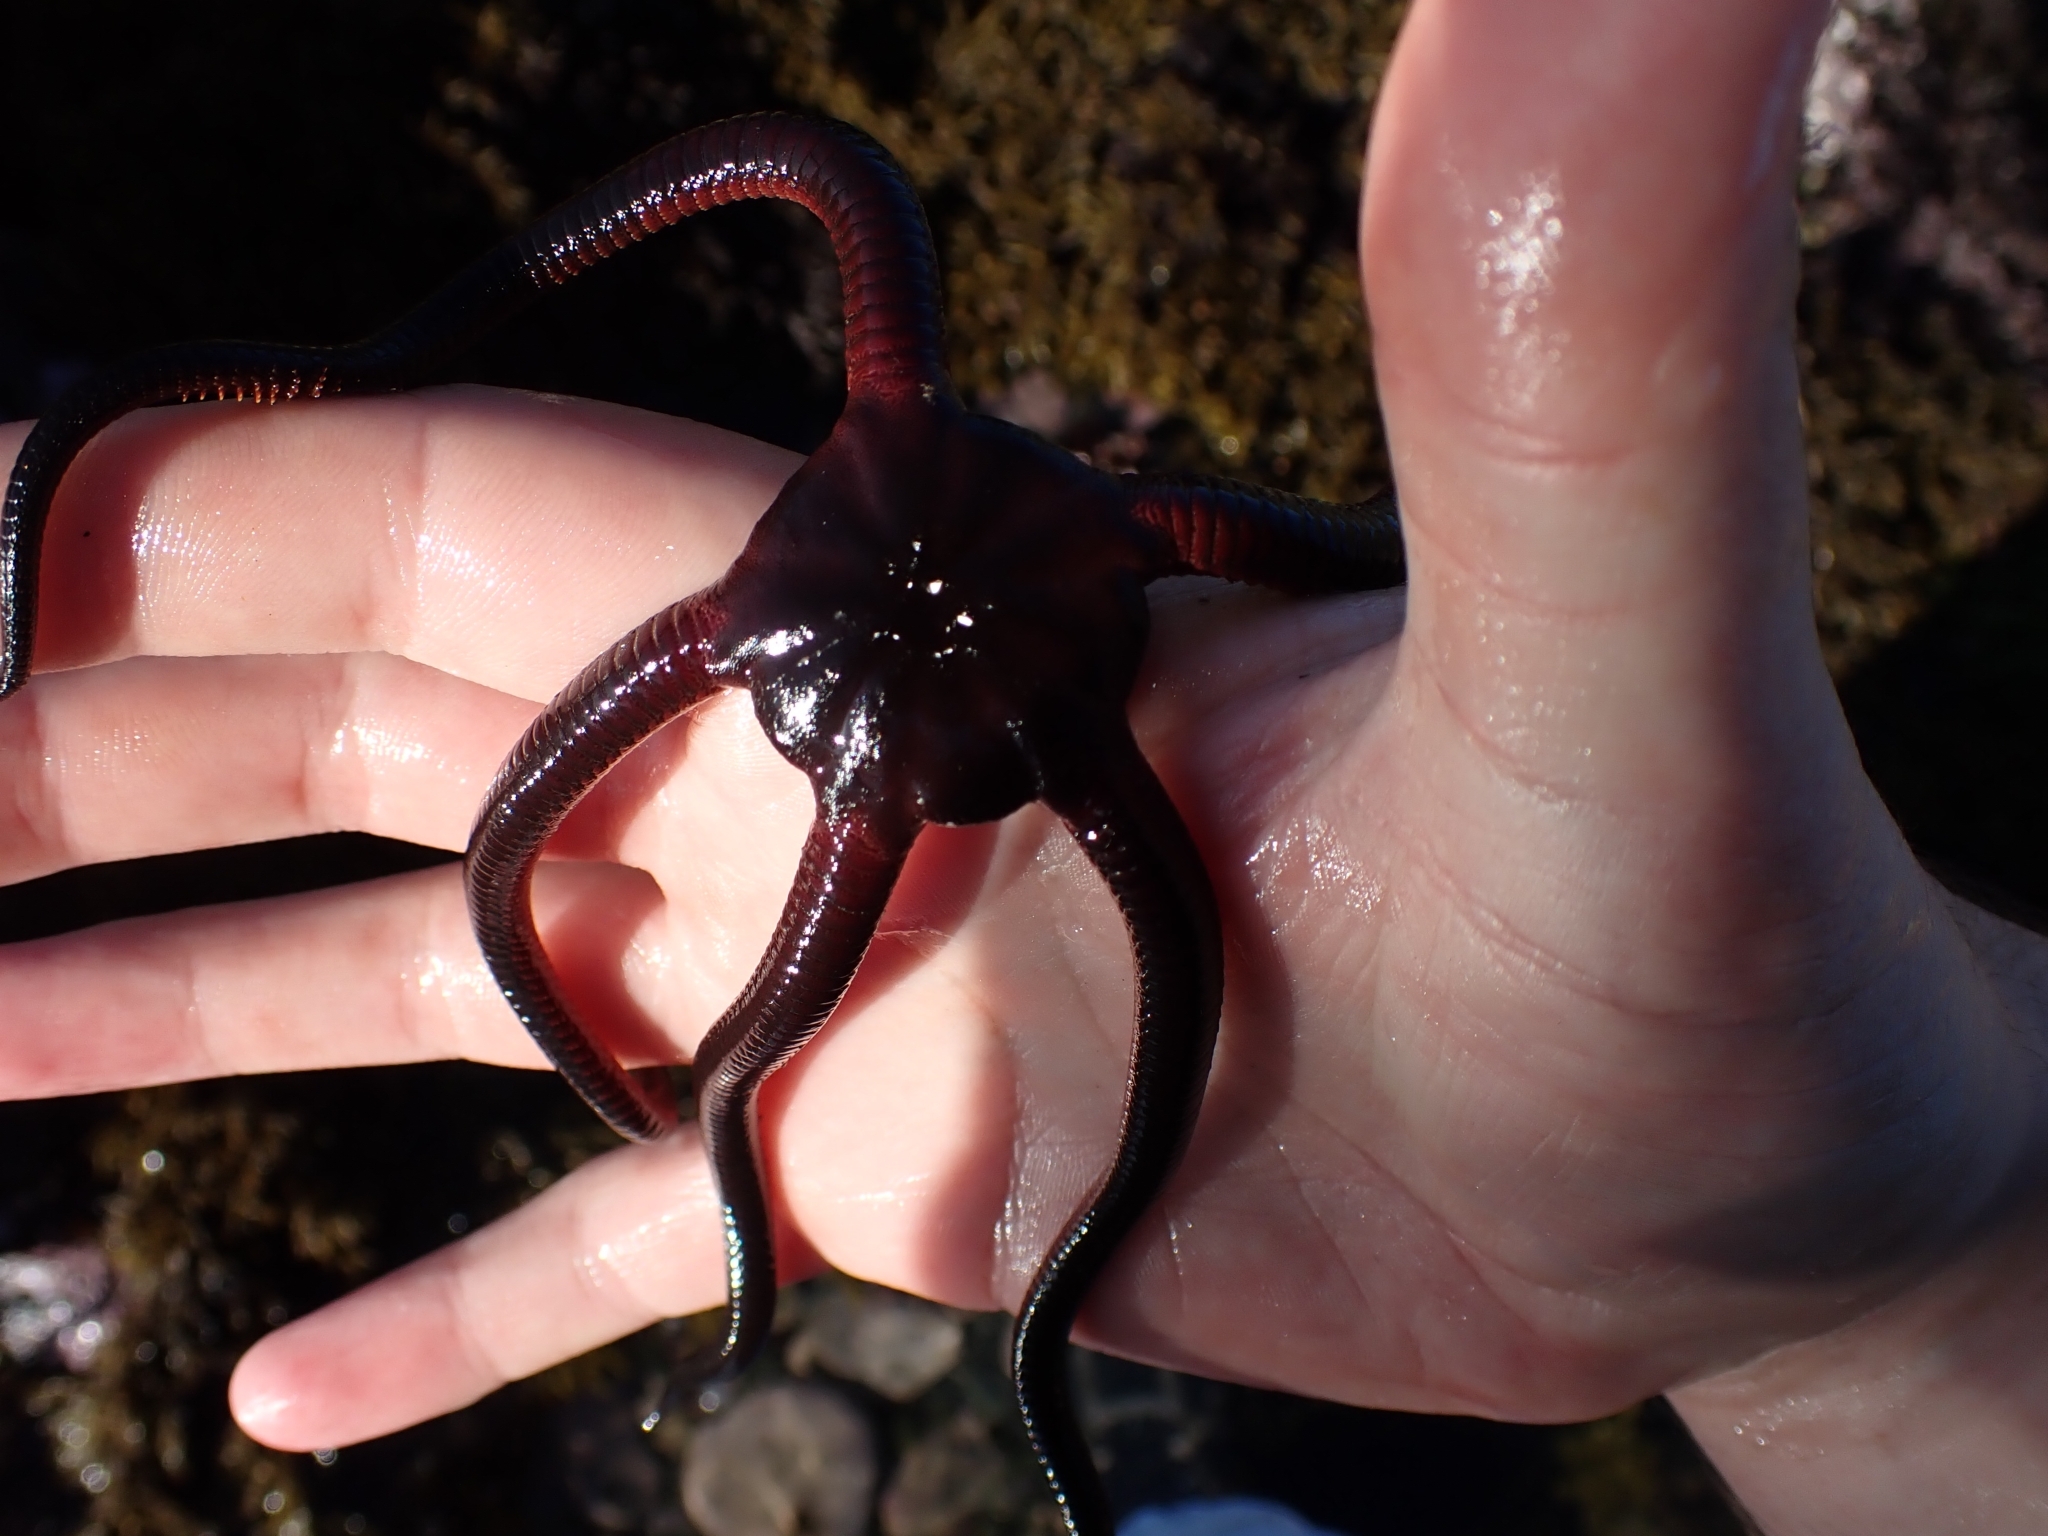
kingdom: Animalia
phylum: Echinodermata
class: Ophiuroidea
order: Ophiacanthida
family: Ophiodermatidae
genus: Ophiopsammus
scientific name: Ophiopsammus maculata
